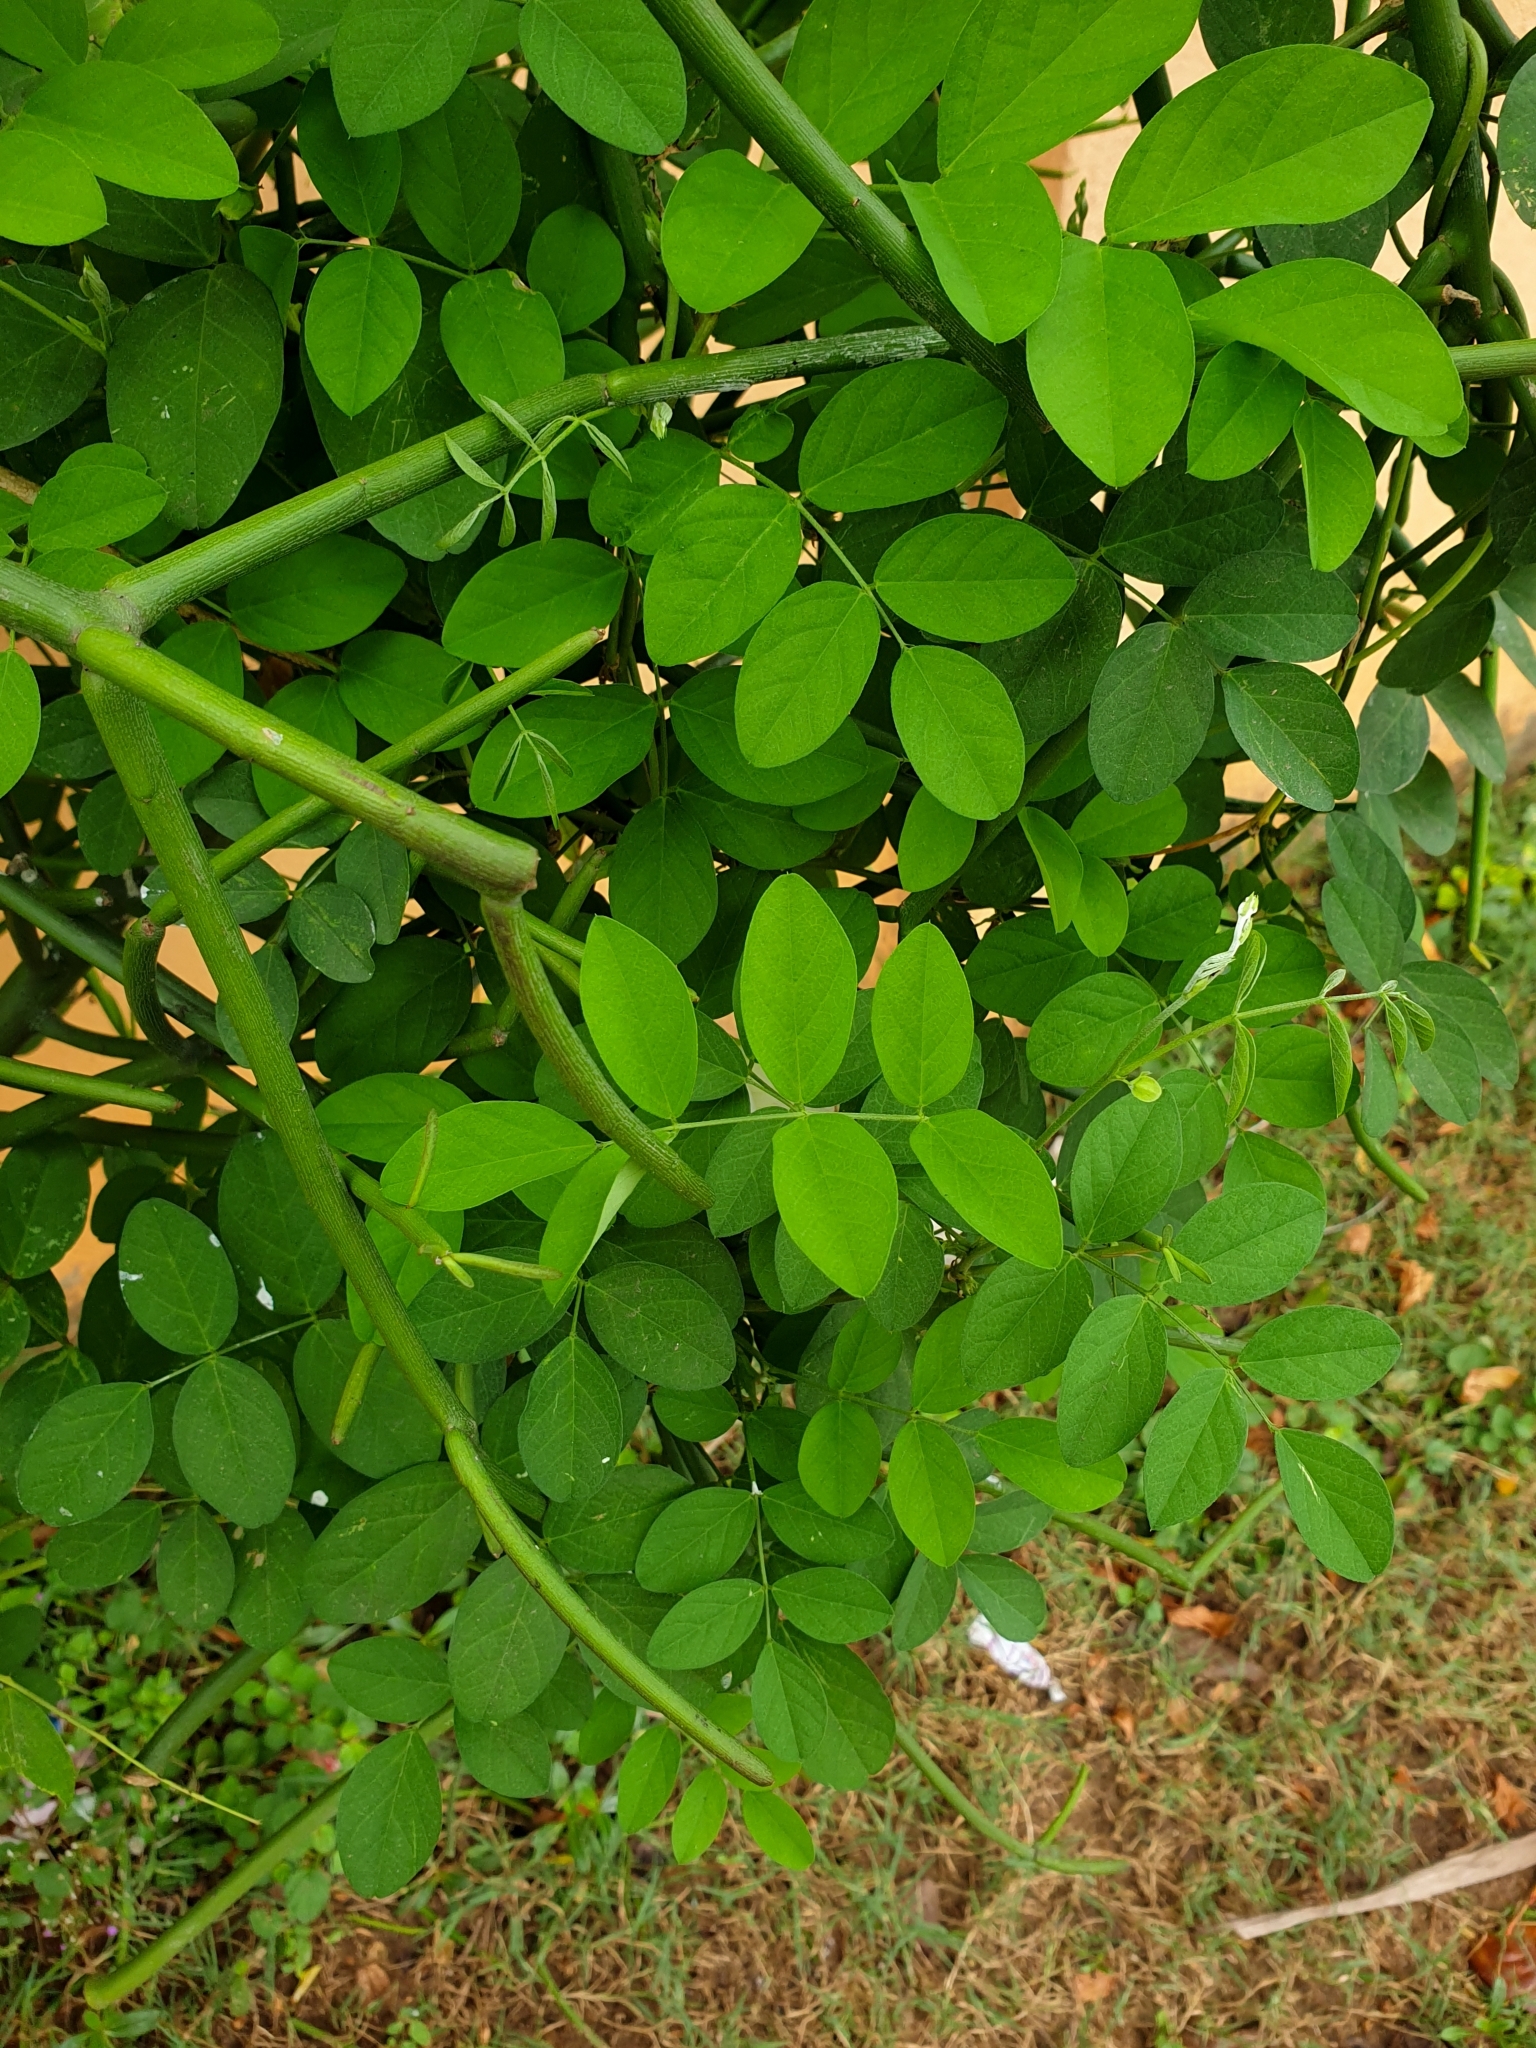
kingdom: Plantae
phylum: Tracheophyta
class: Magnoliopsida
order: Fabales
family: Fabaceae
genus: Clitoria
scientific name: Clitoria ternatea
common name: Asian pigeonwings
